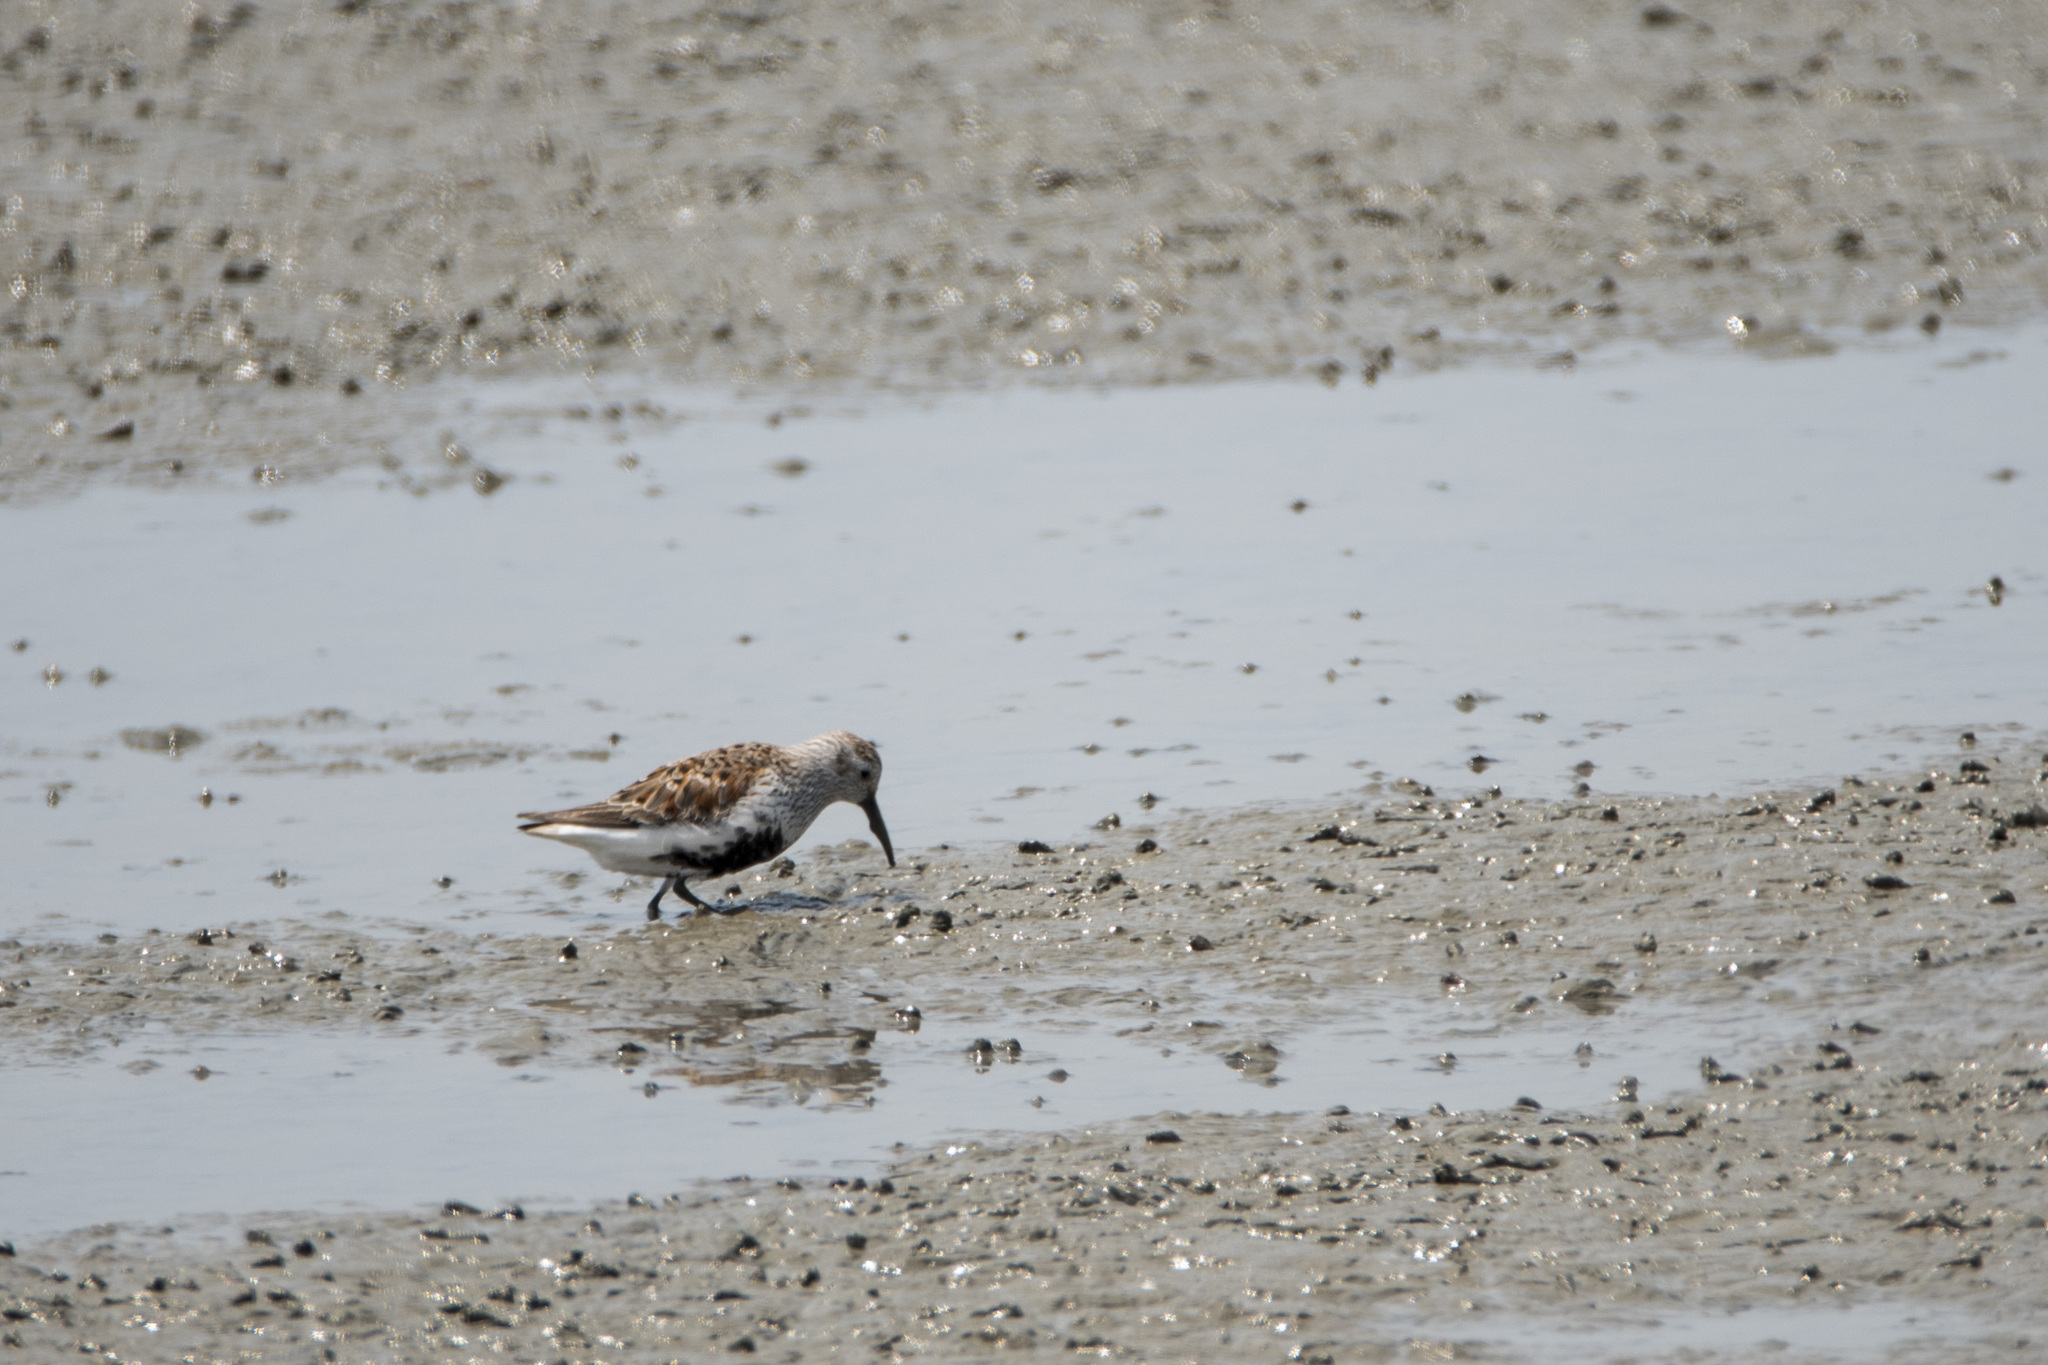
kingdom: Animalia
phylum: Chordata
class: Aves
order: Charadriiformes
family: Scolopacidae
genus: Calidris
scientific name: Calidris alpina
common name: Dunlin
